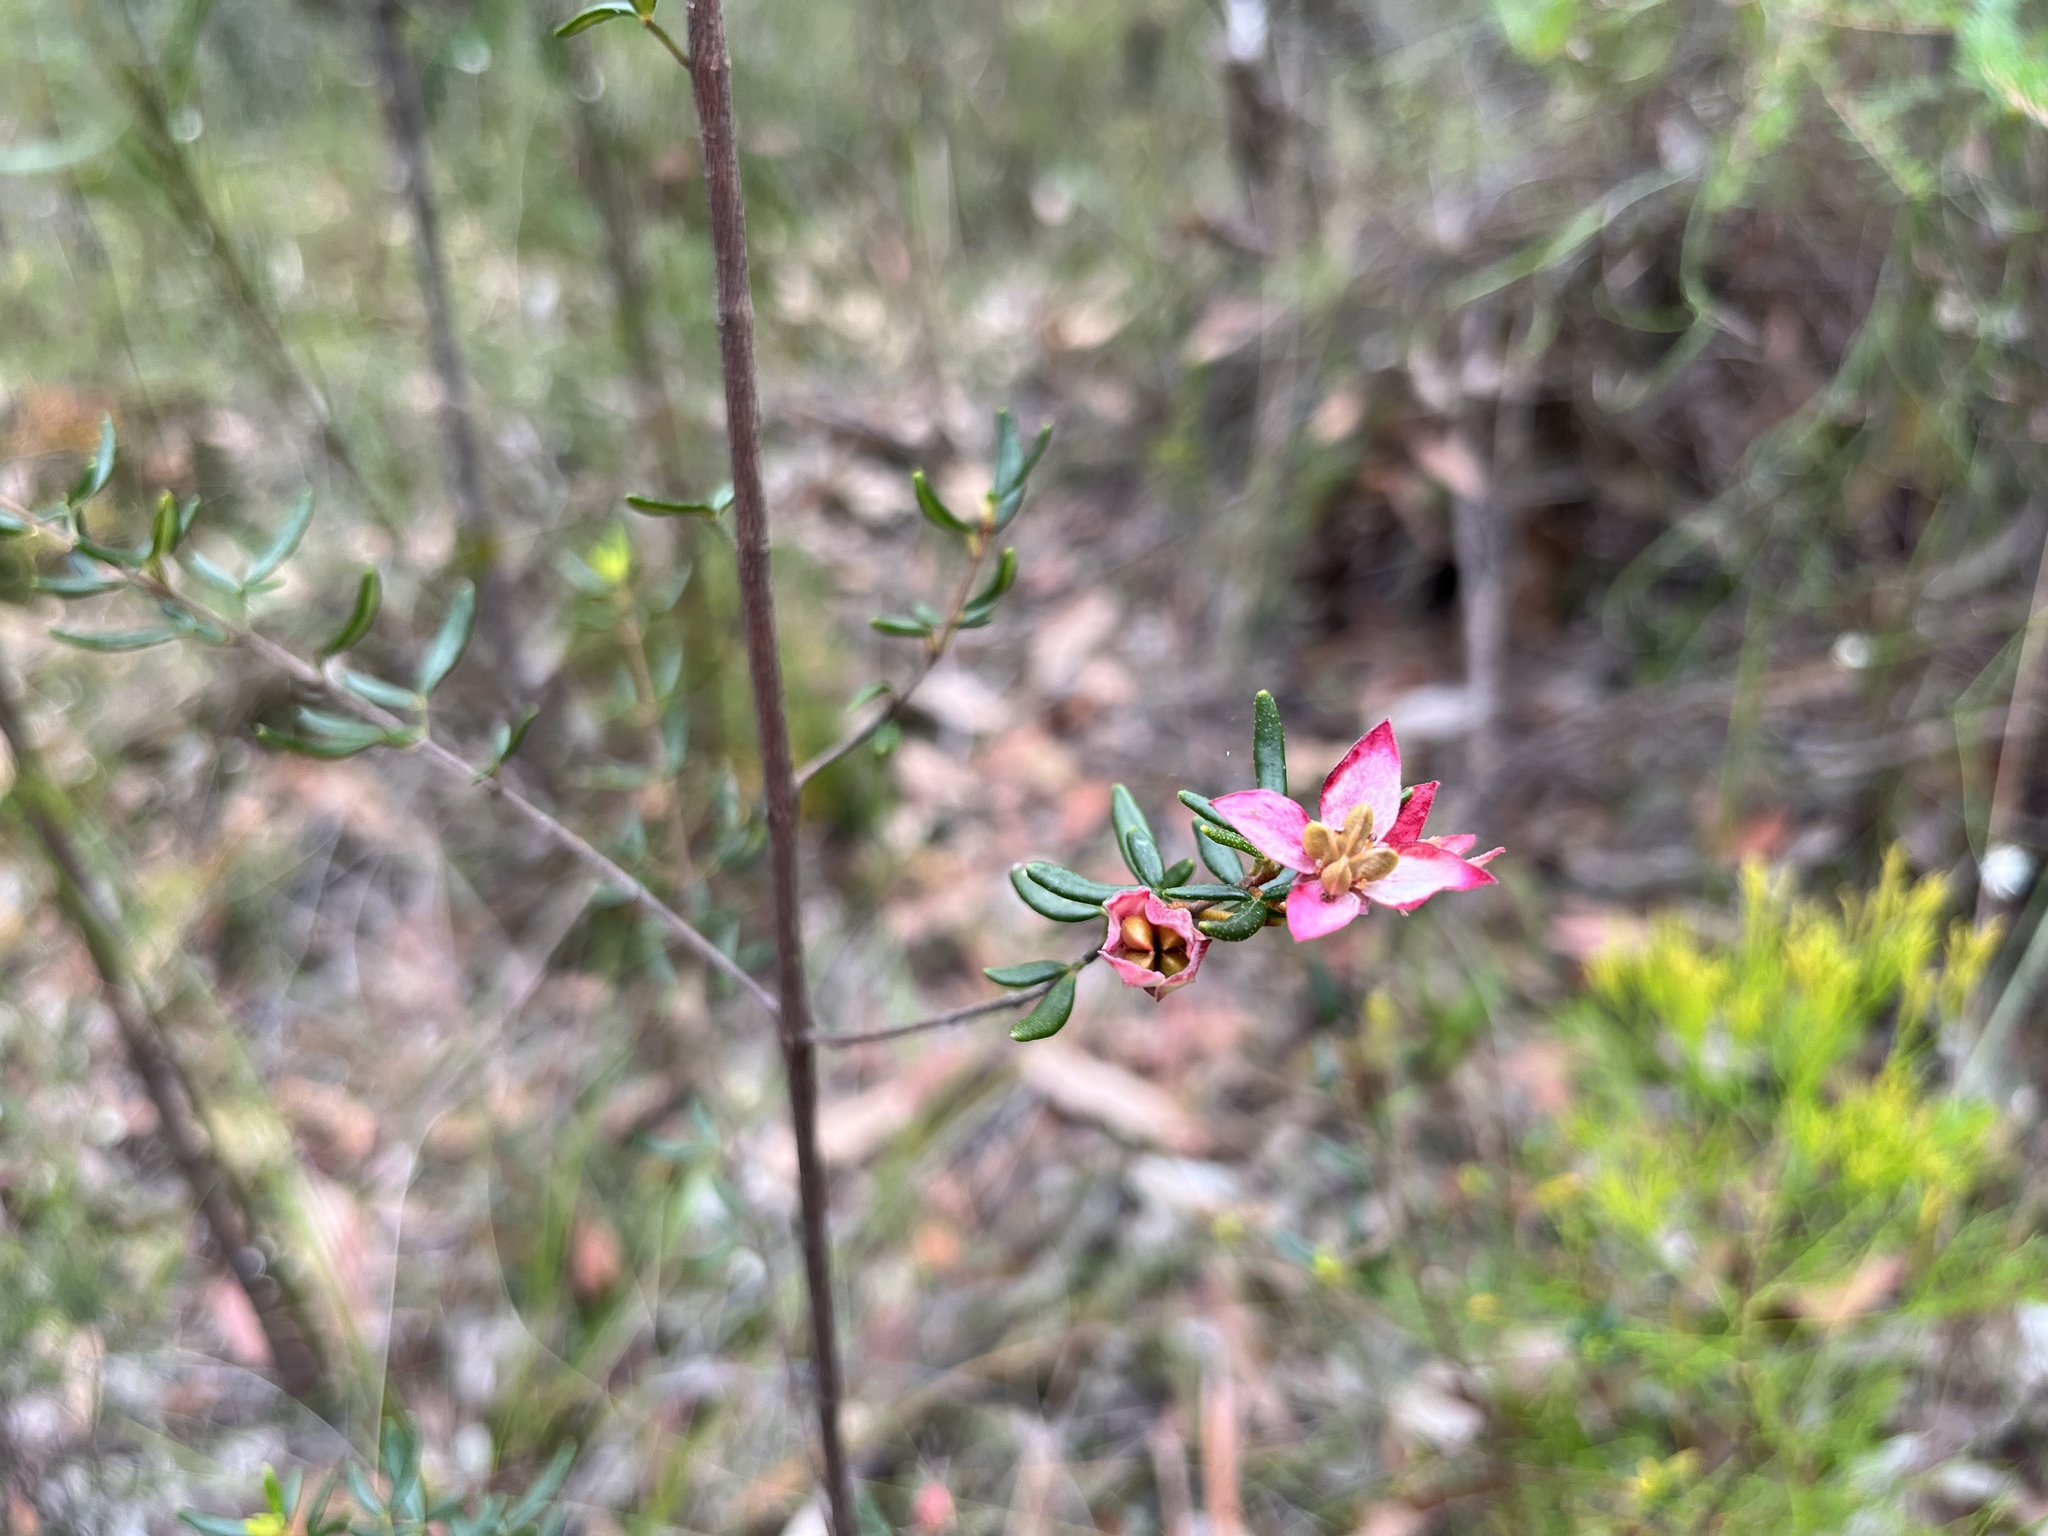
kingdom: Plantae
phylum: Tracheophyta
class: Magnoliopsida
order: Sapindales
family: Rutaceae
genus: Boronia
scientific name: Boronia ledifolia
